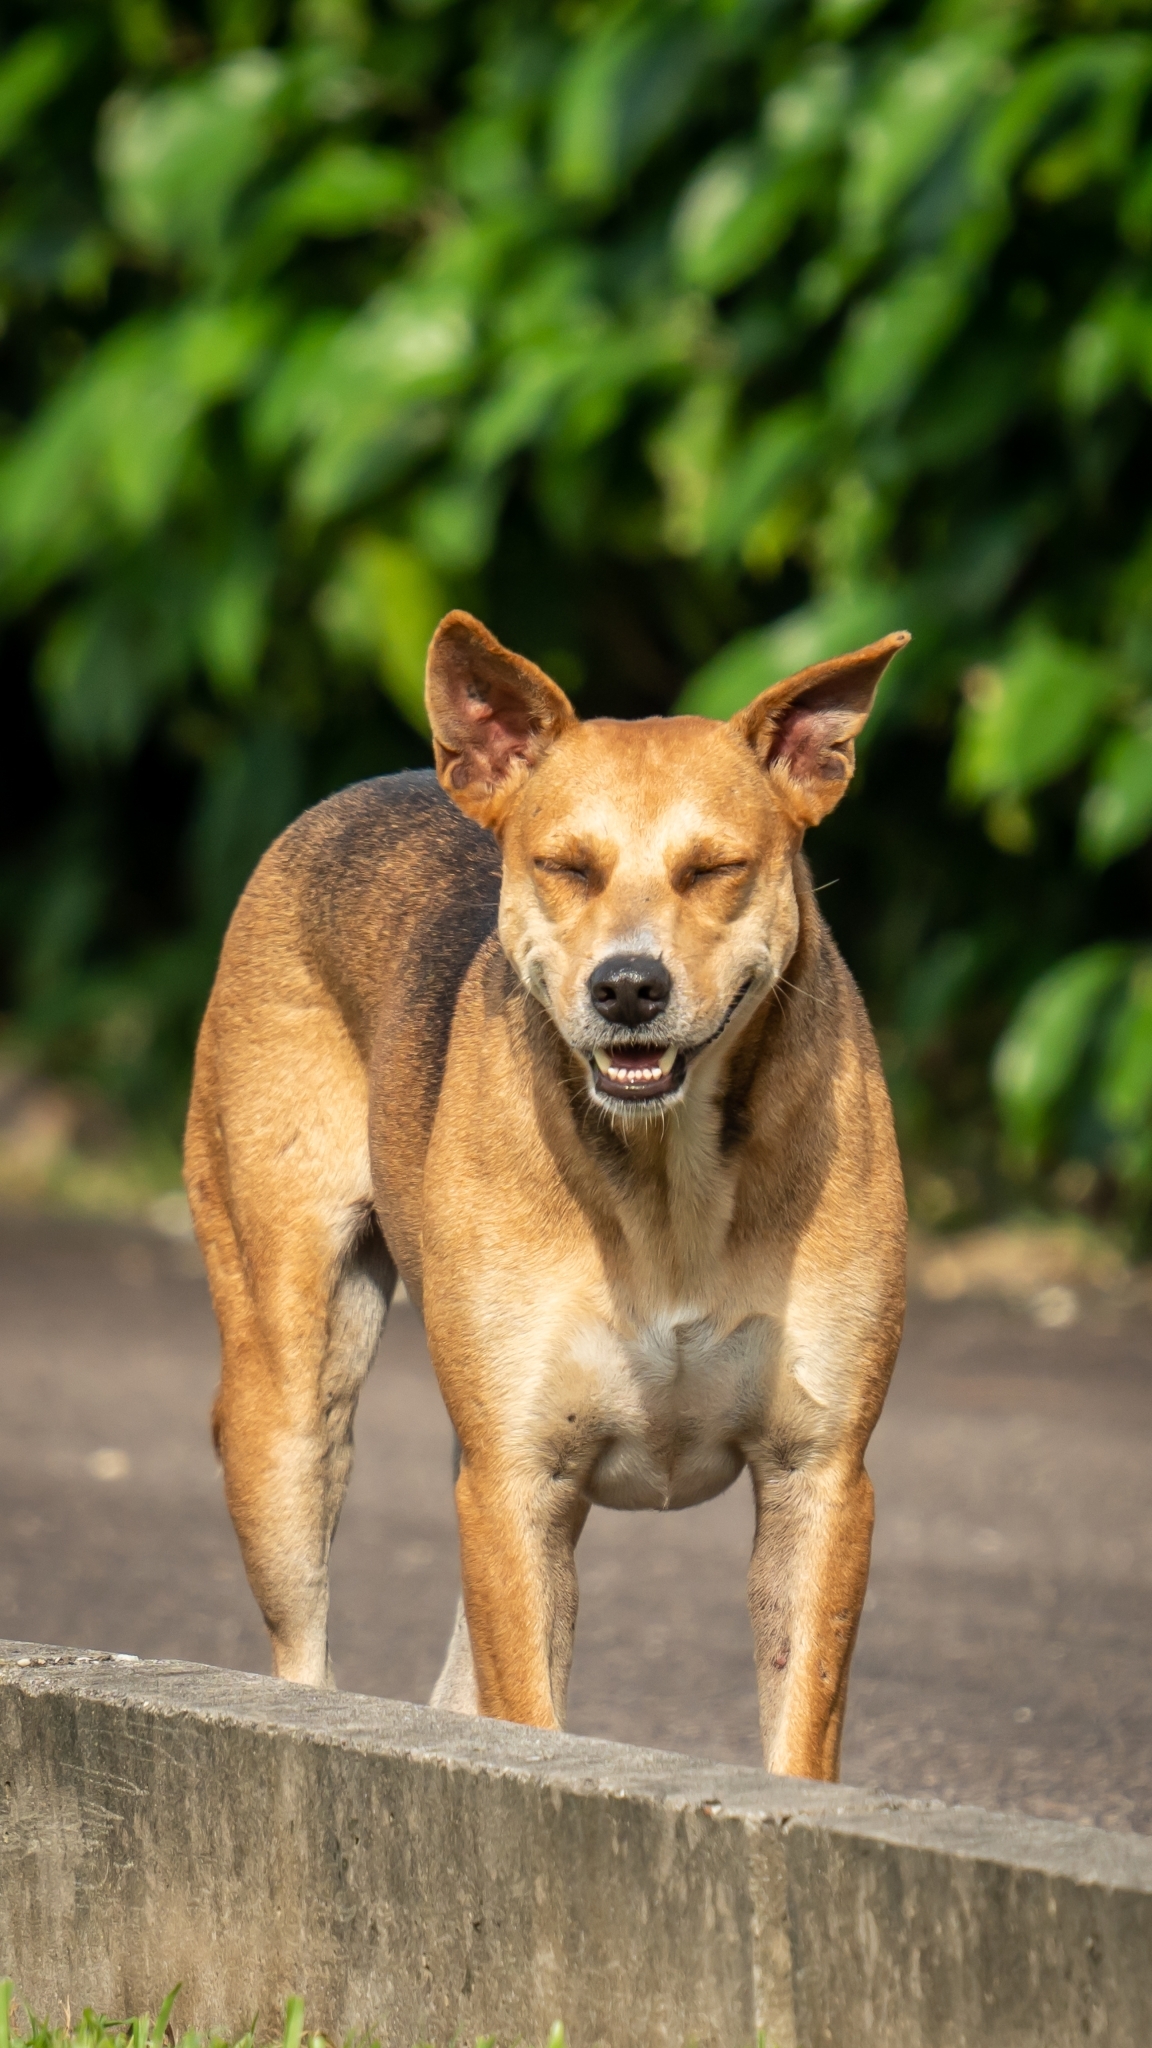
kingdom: Animalia
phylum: Chordata
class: Mammalia
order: Carnivora
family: Canidae
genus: Canis
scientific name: Canis lupus
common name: Gray wolf
